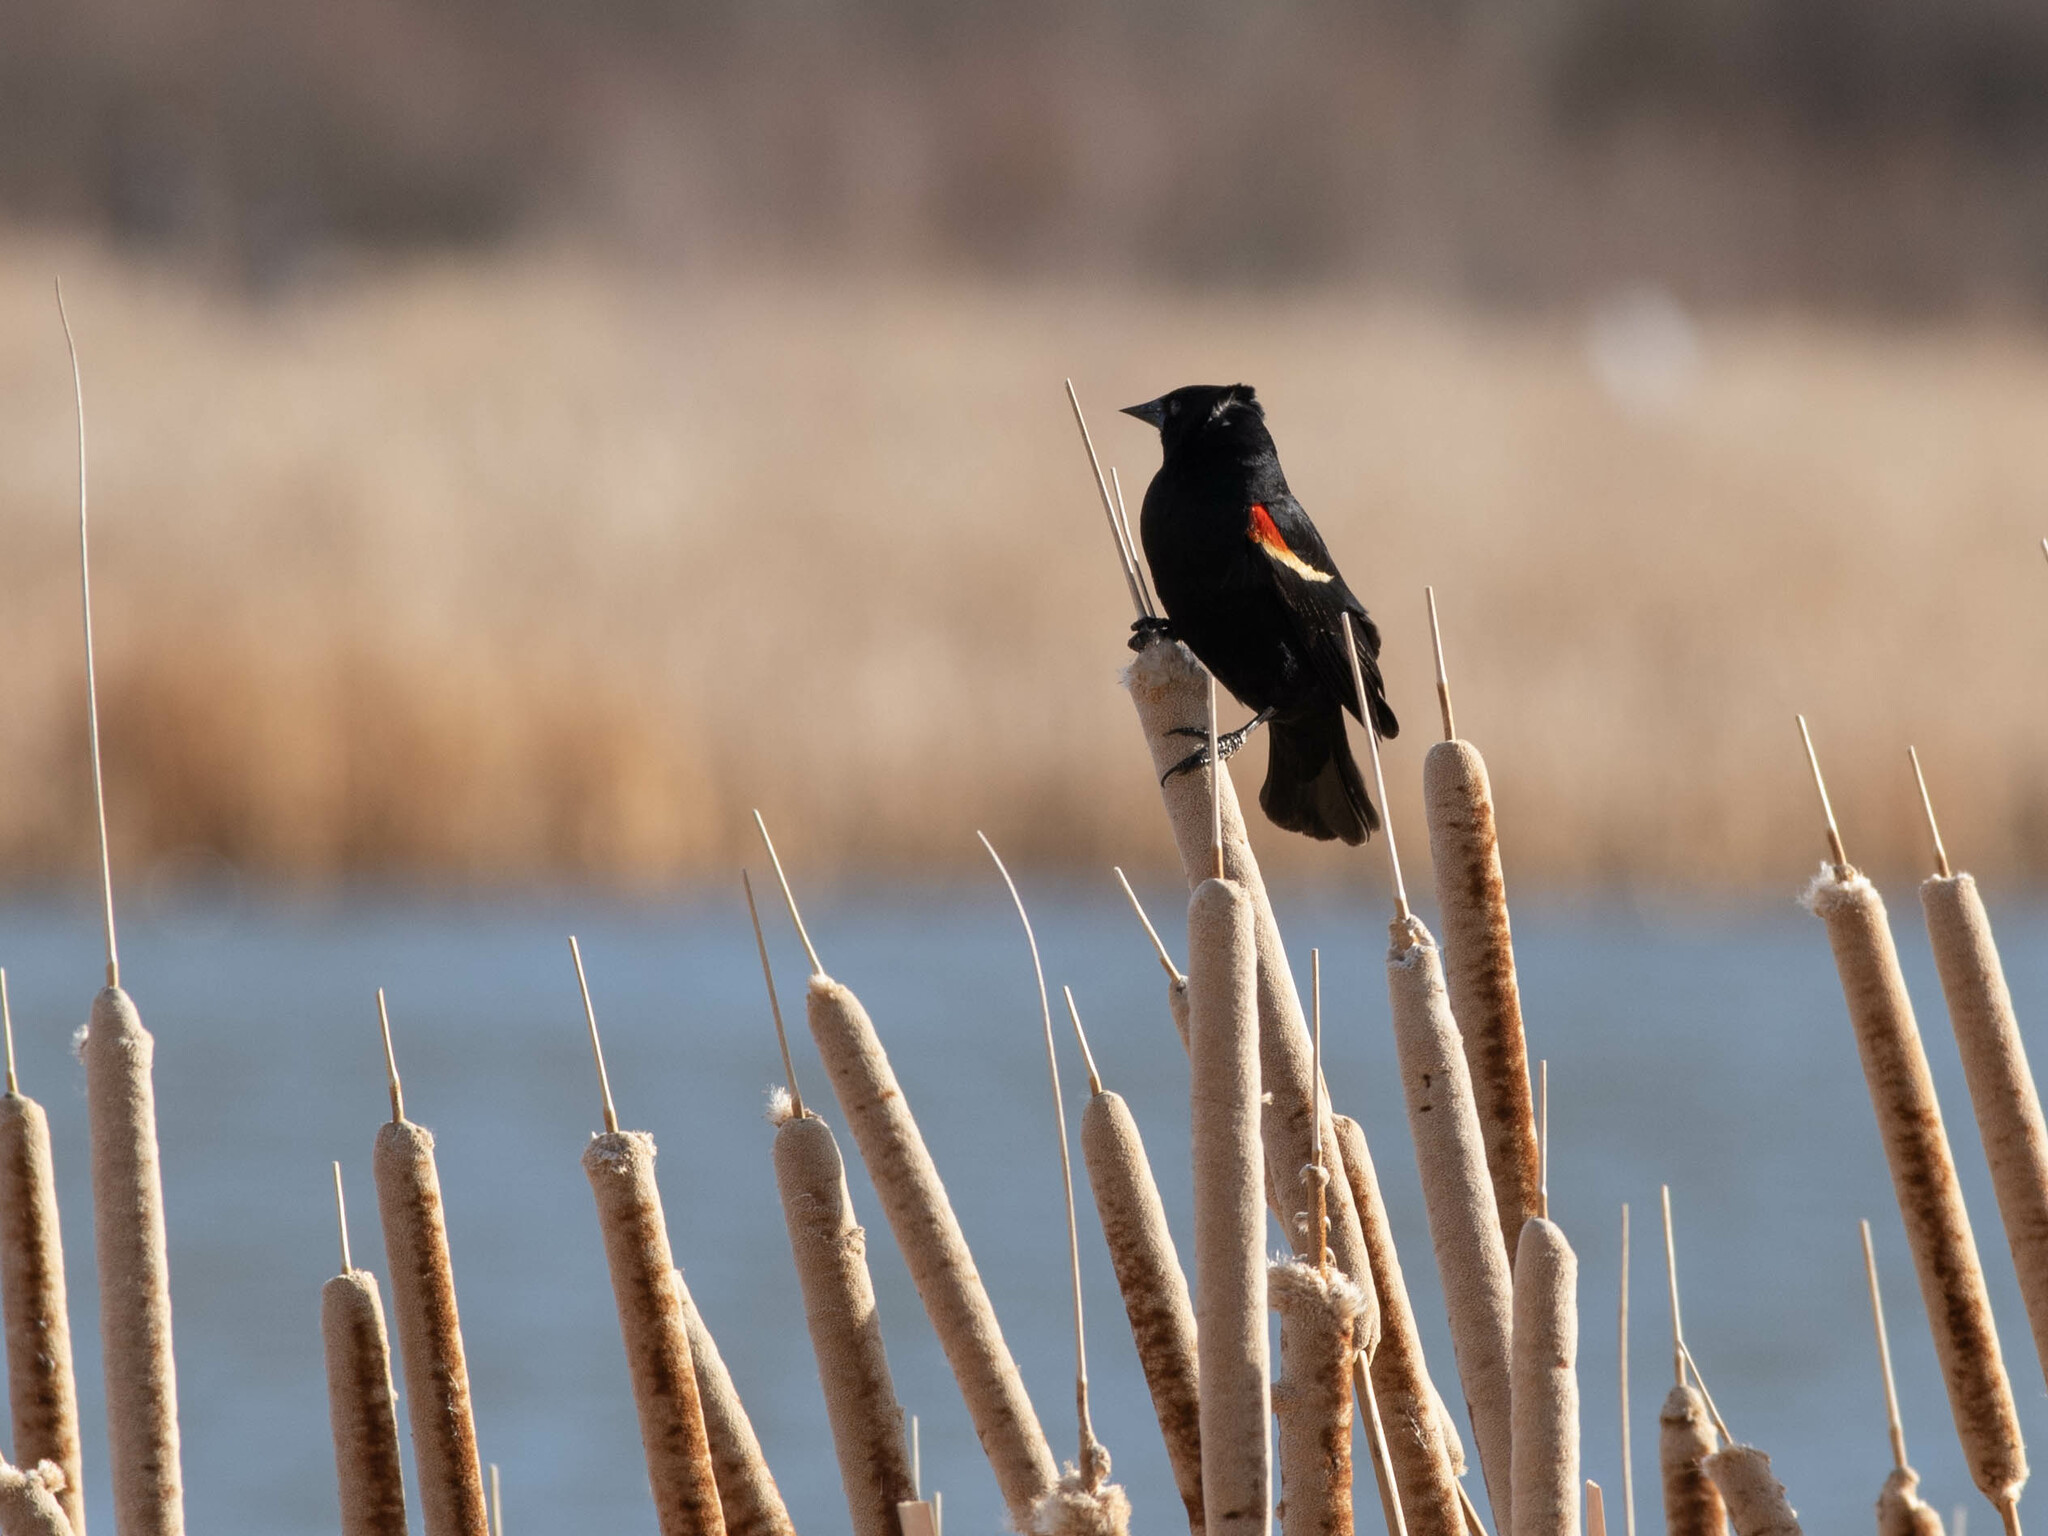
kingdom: Animalia
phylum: Chordata
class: Aves
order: Passeriformes
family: Icteridae
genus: Agelaius
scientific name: Agelaius phoeniceus
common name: Red-winged blackbird
